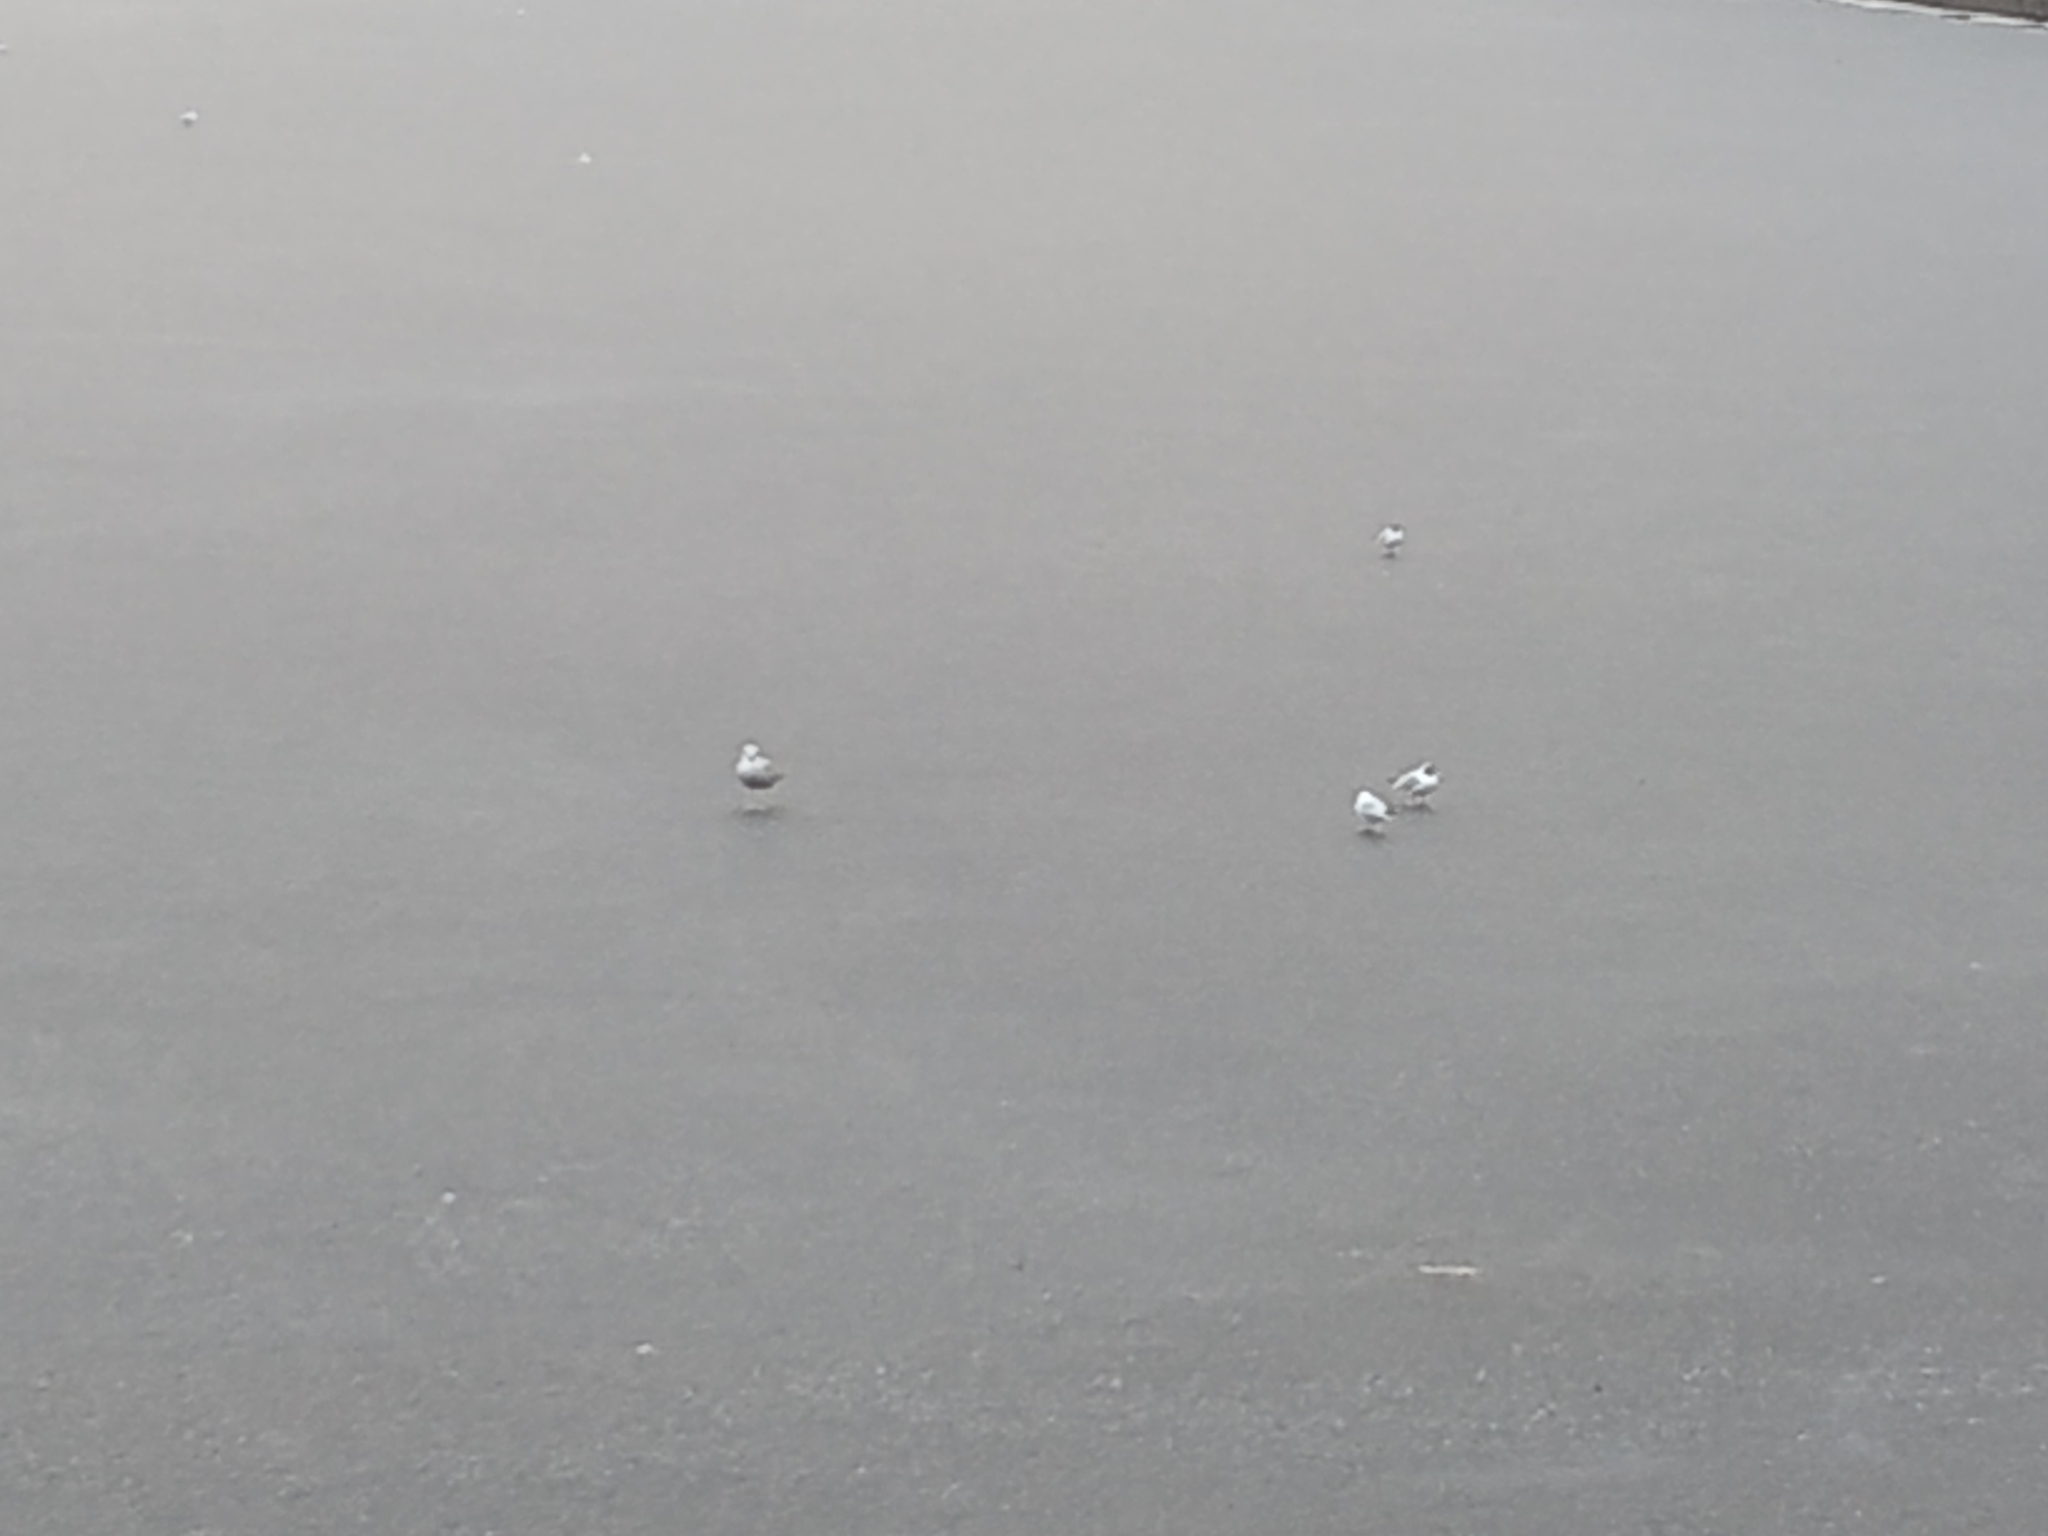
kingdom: Animalia
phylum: Chordata
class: Aves
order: Charadriiformes
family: Laridae
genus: Chroicocephalus
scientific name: Chroicocephalus ridibundus
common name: Black-headed gull
